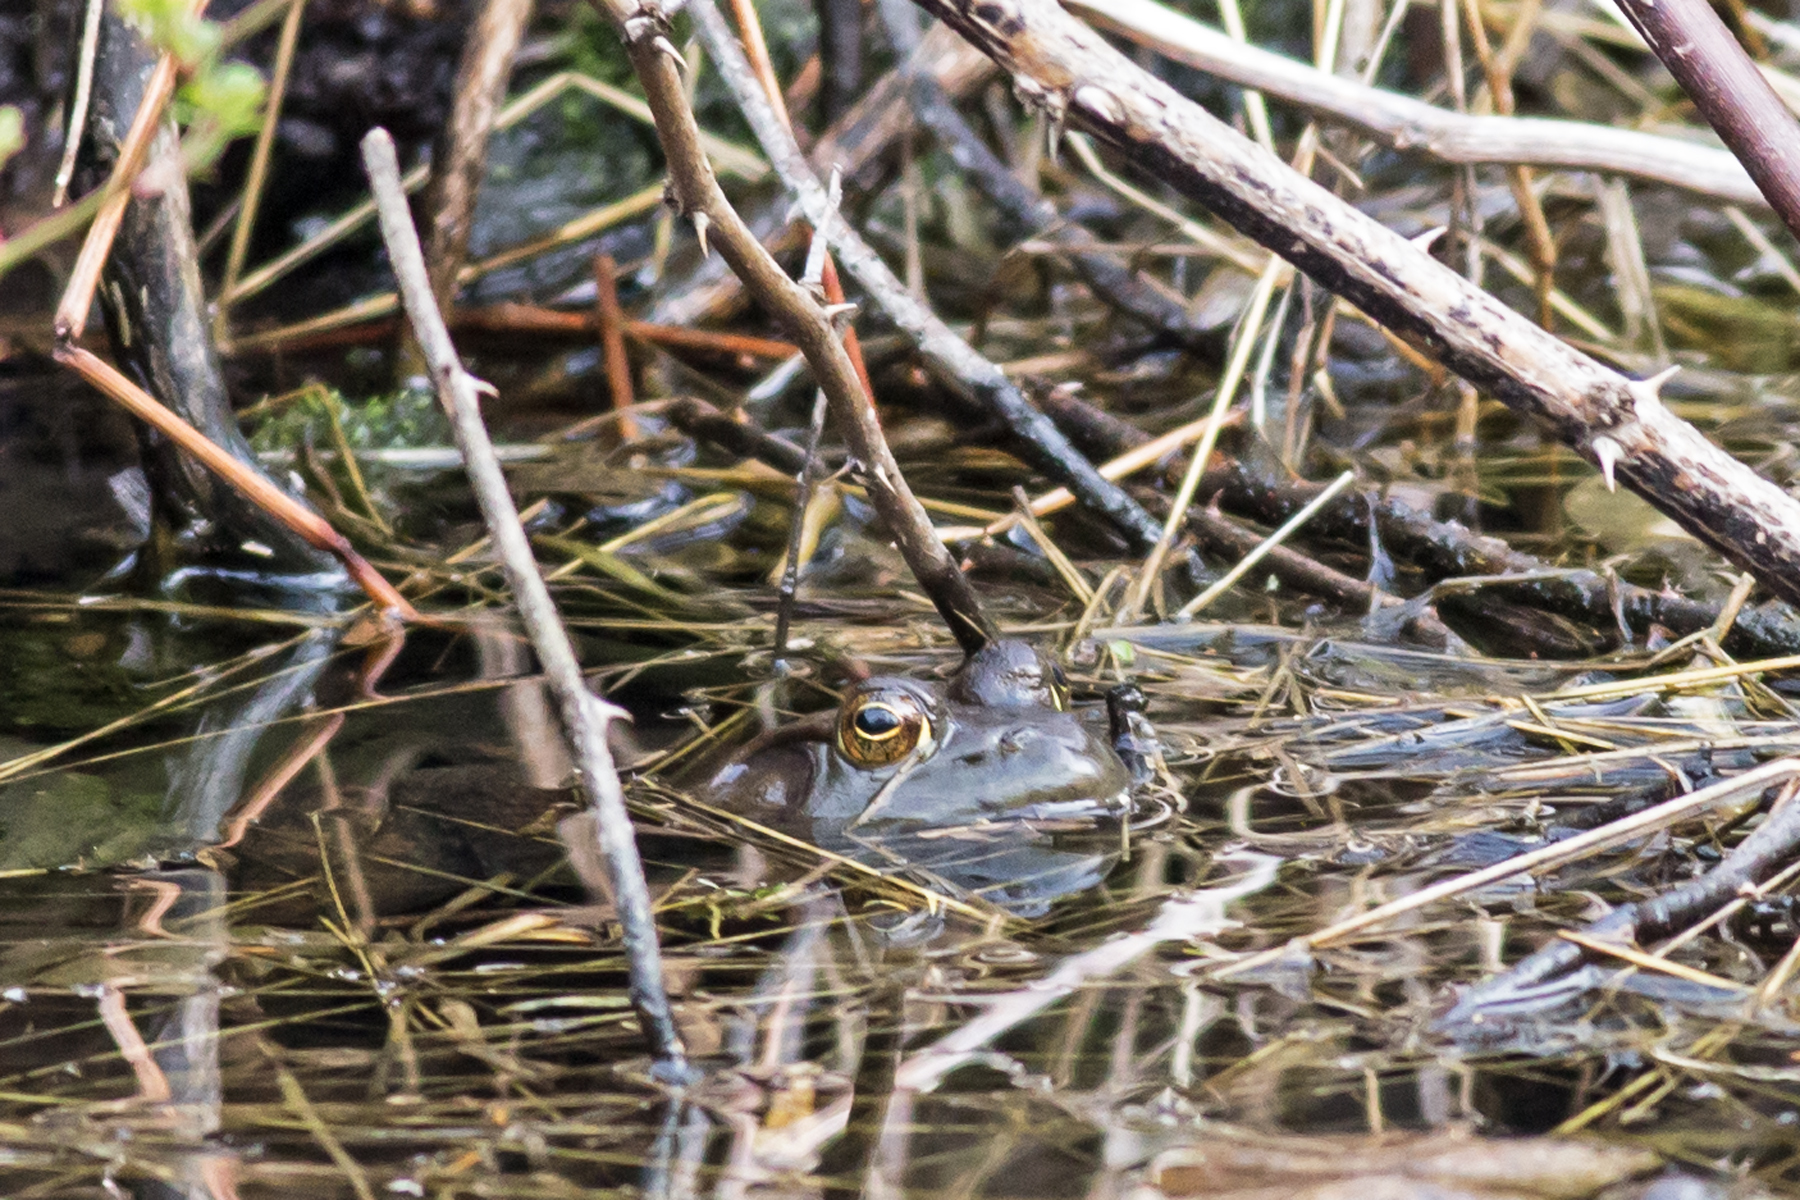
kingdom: Animalia
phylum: Chordata
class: Amphibia
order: Anura
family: Ranidae
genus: Lithobates
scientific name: Lithobates catesbeianus
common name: American bullfrog
